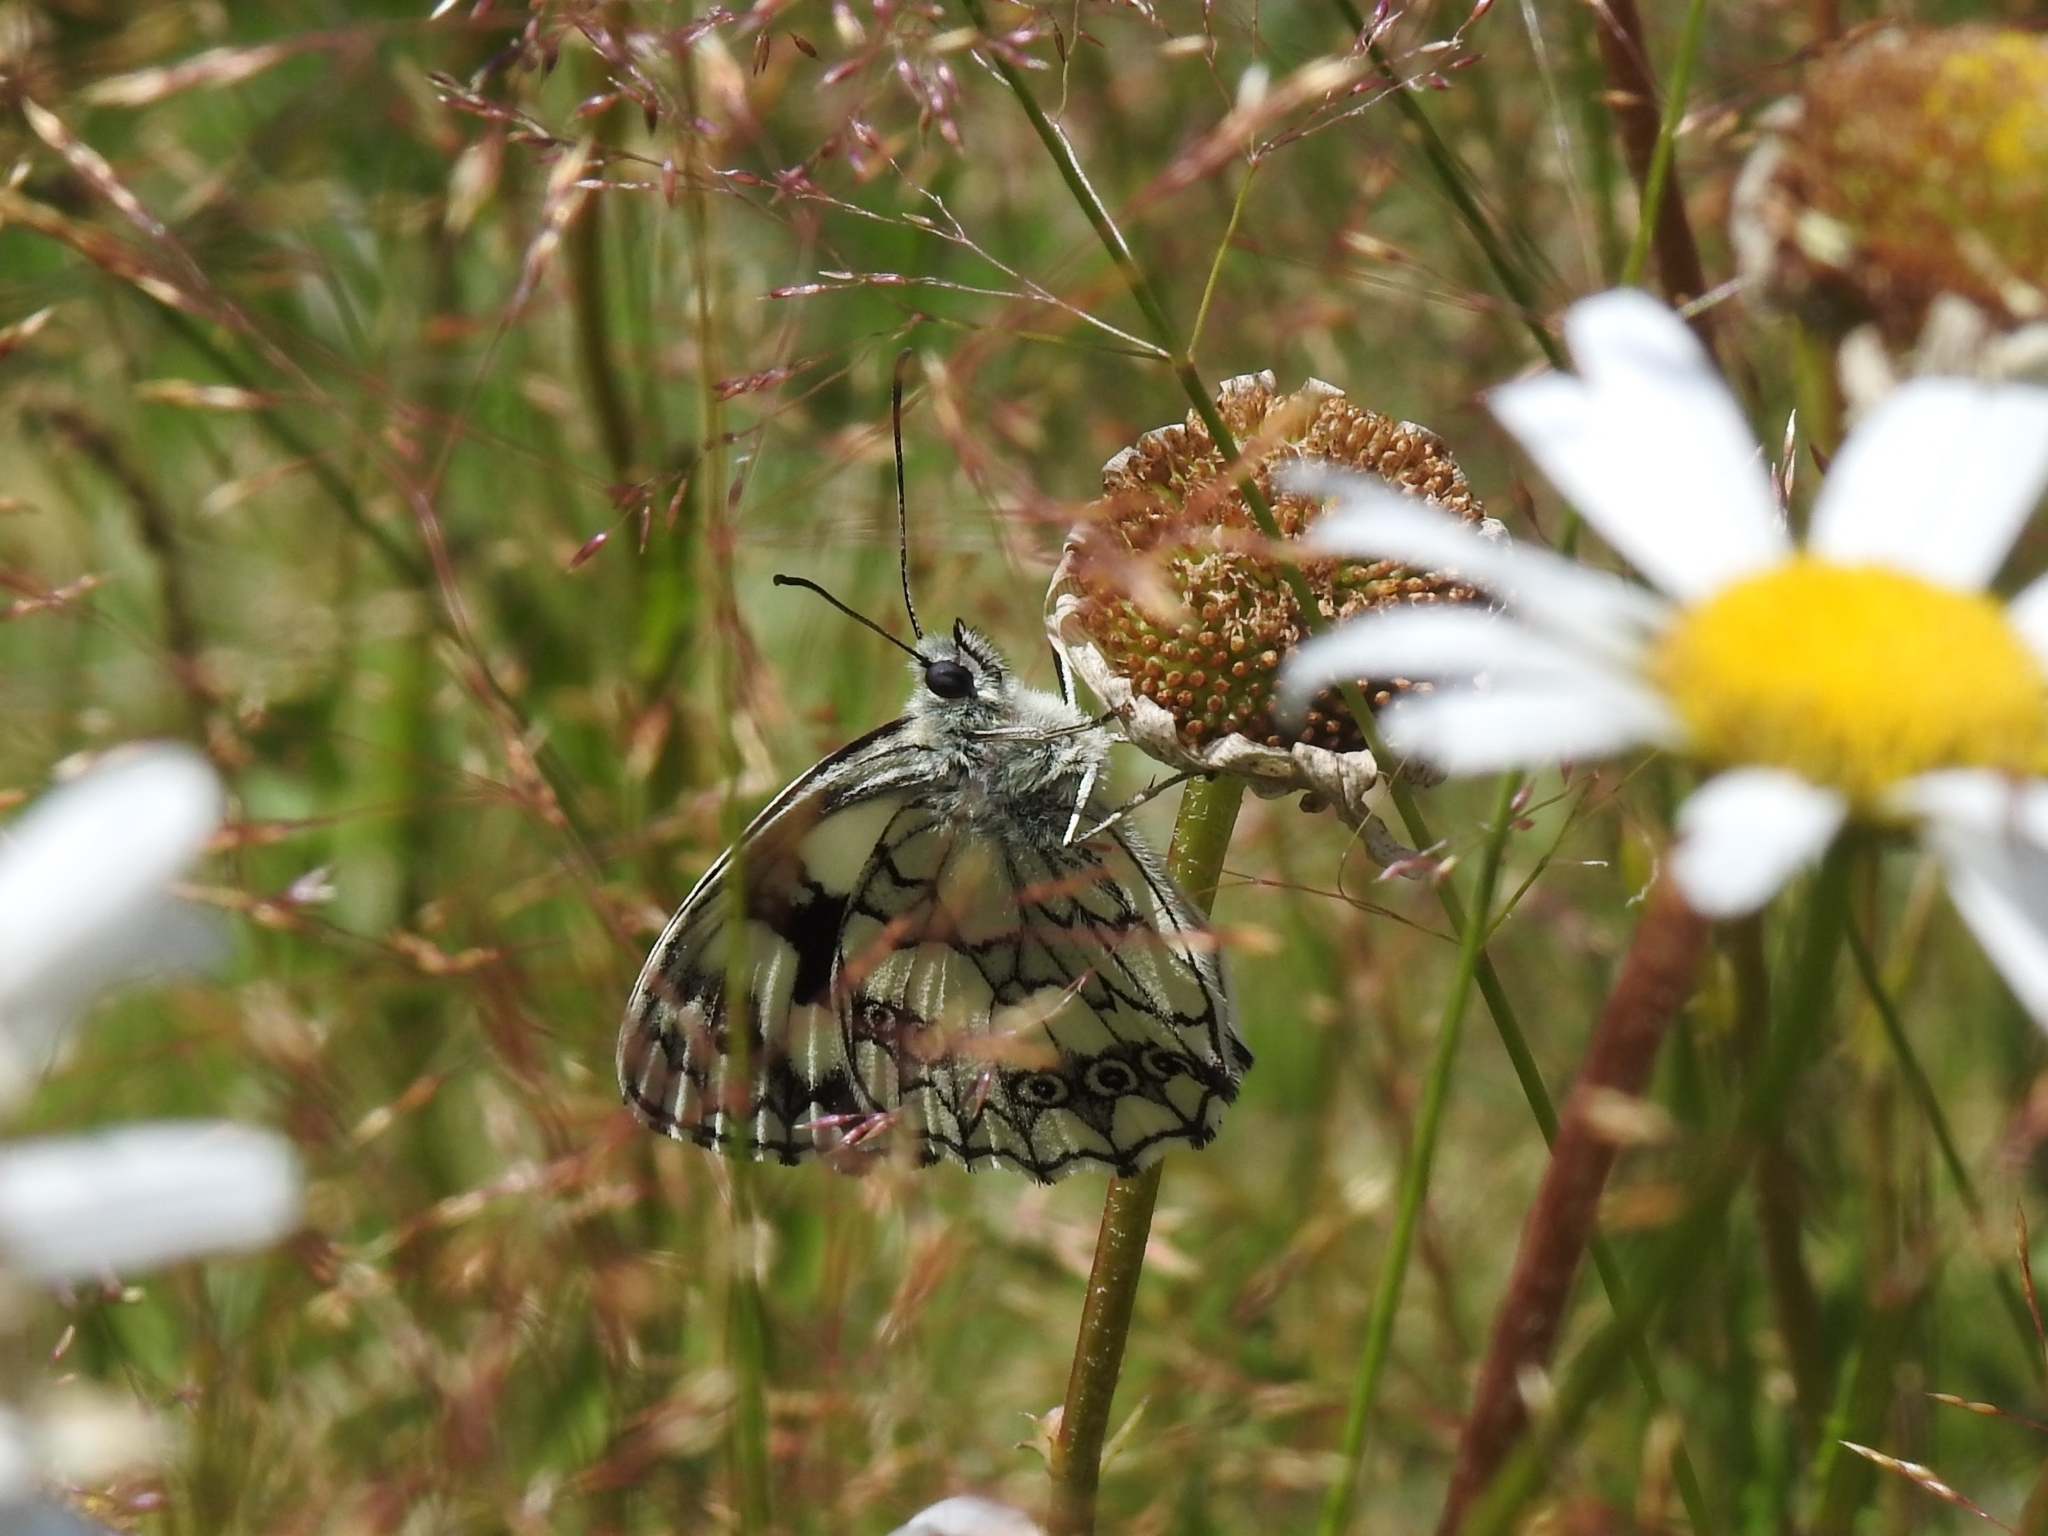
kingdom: Animalia
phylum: Arthropoda
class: Insecta
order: Lepidoptera
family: Nymphalidae
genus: Melanargia
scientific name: Melanargia galathea
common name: Marbled white
